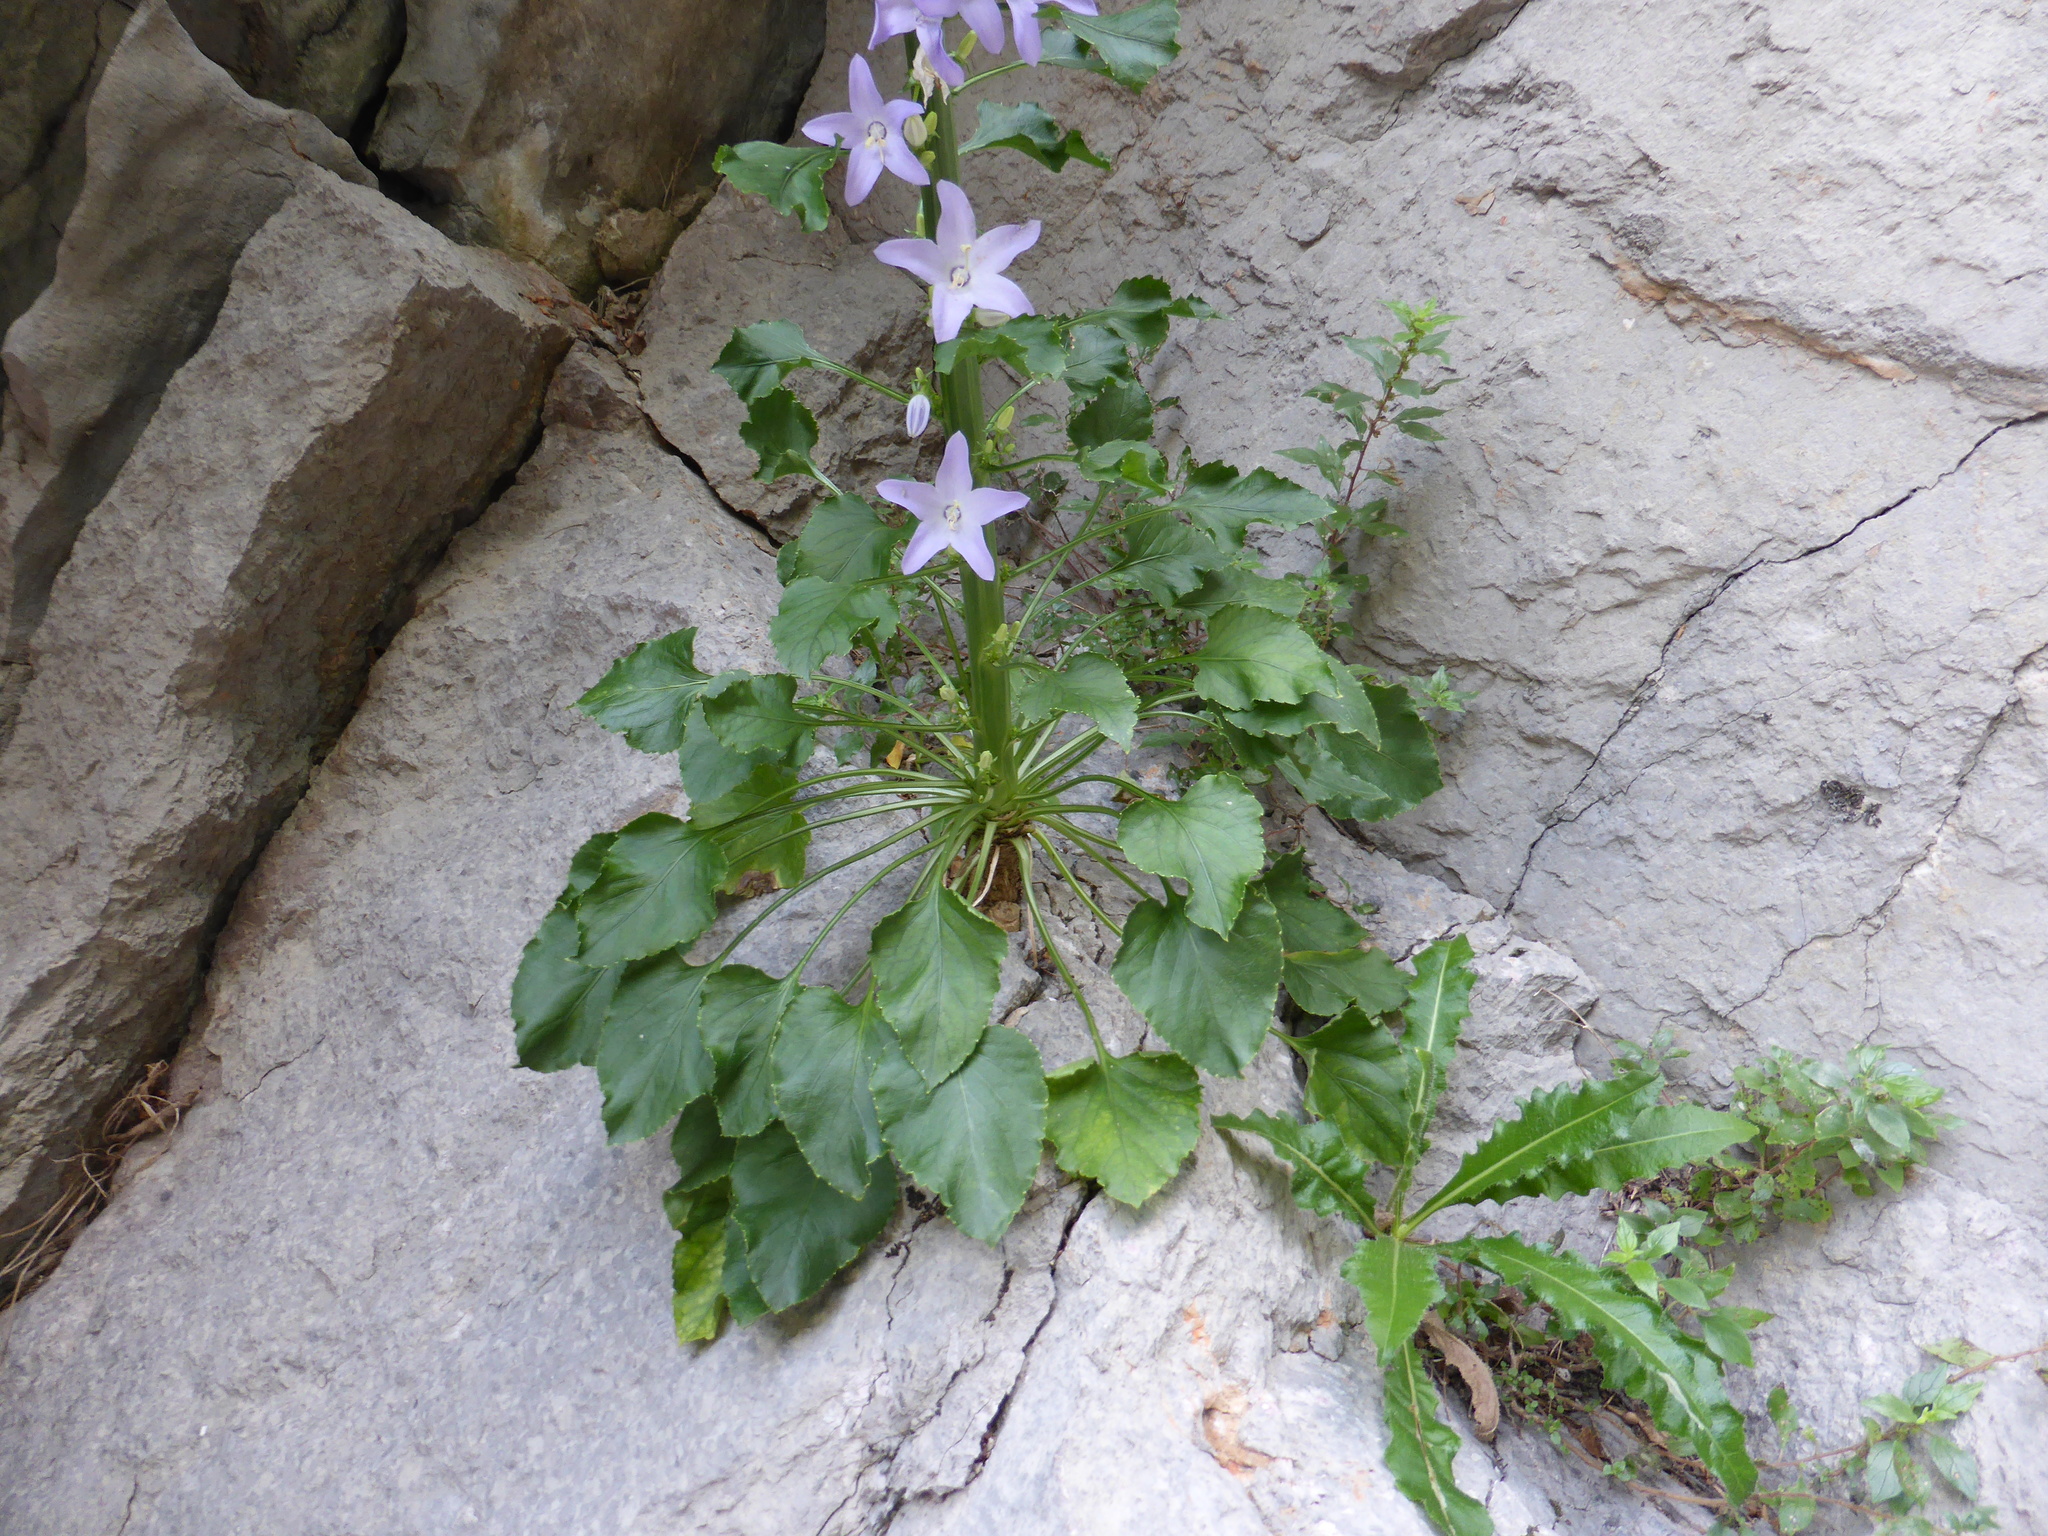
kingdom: Plantae
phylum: Tracheophyta
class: Magnoliopsida
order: Asterales
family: Campanulaceae
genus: Campanula
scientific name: Campanula pyramidalis
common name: Chimney bellflower
